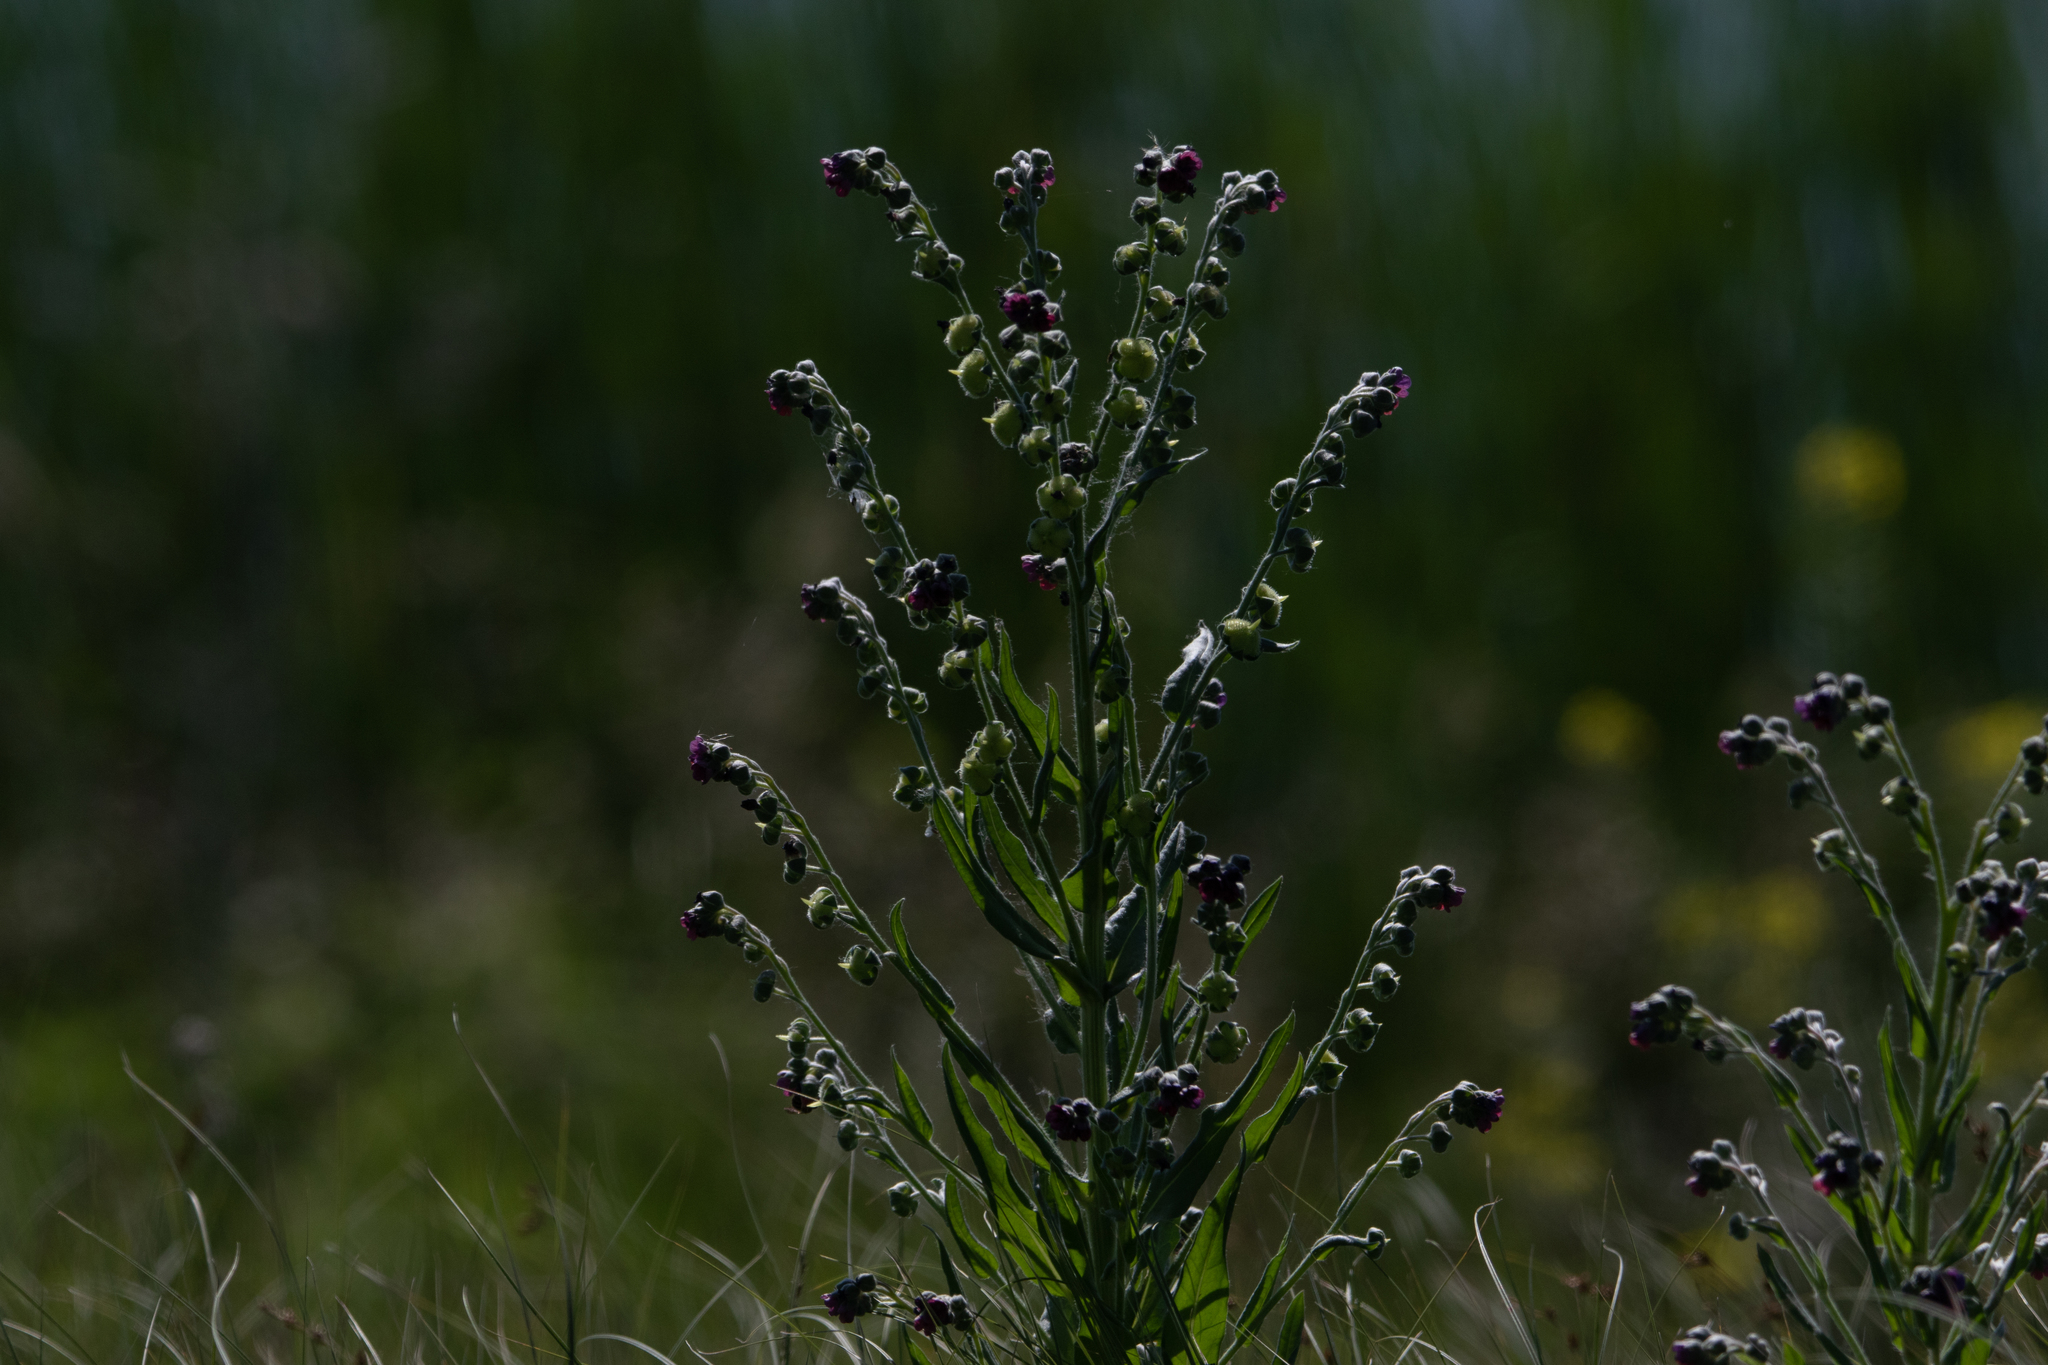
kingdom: Plantae
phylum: Tracheophyta
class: Magnoliopsida
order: Boraginales
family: Boraginaceae
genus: Cynoglossum
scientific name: Cynoglossum officinale
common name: Hound's-tongue
